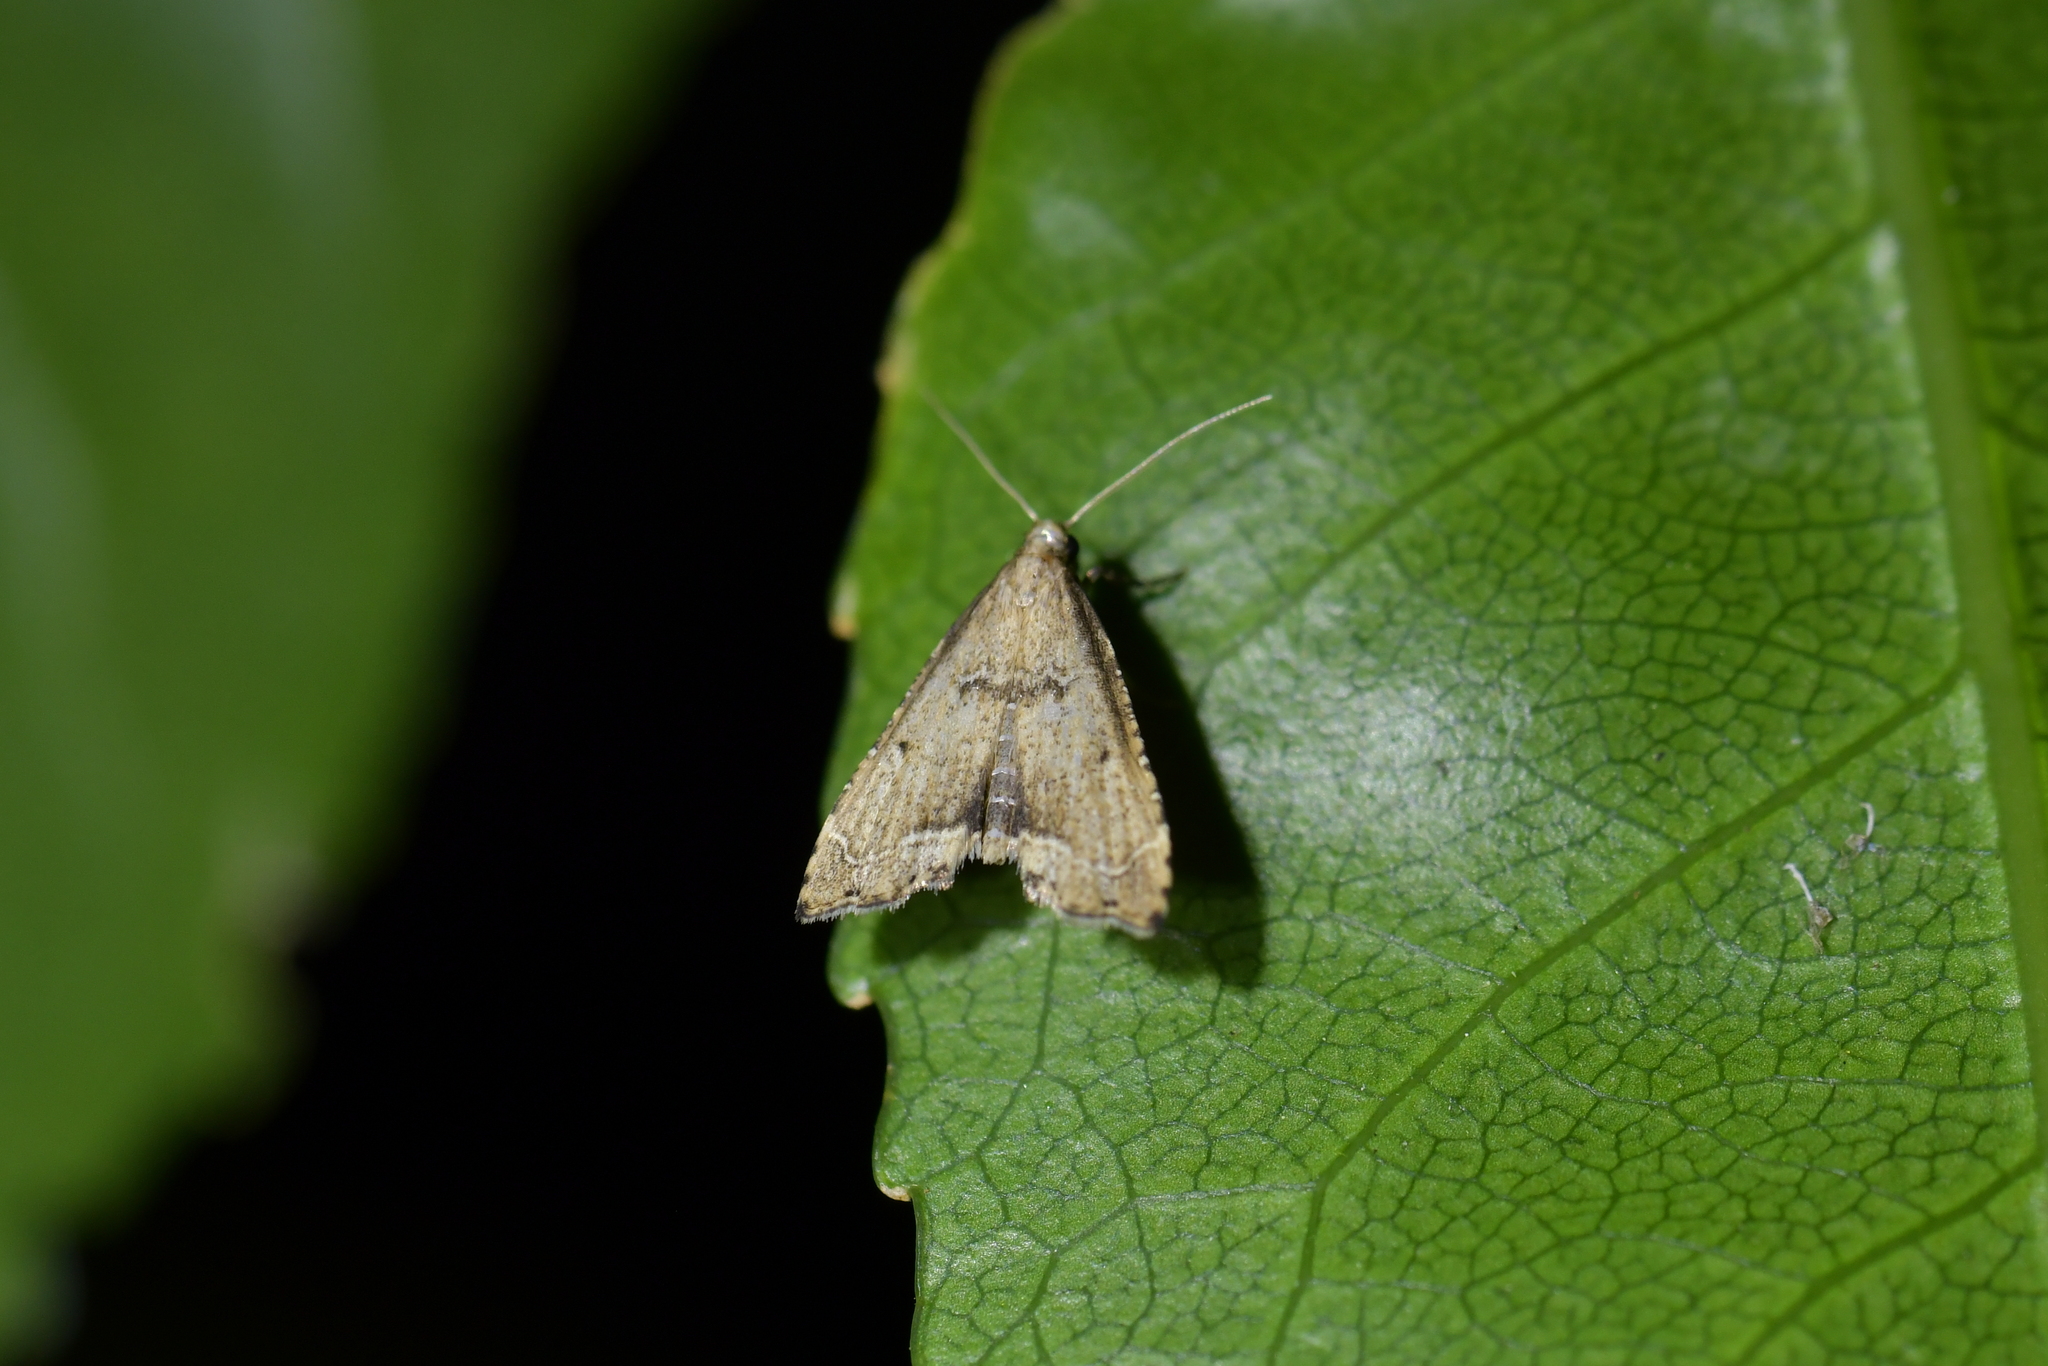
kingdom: Animalia
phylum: Arthropoda
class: Insecta
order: Lepidoptera
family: Crambidae
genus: Diplopseustis
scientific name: Diplopseustis perieresalis
